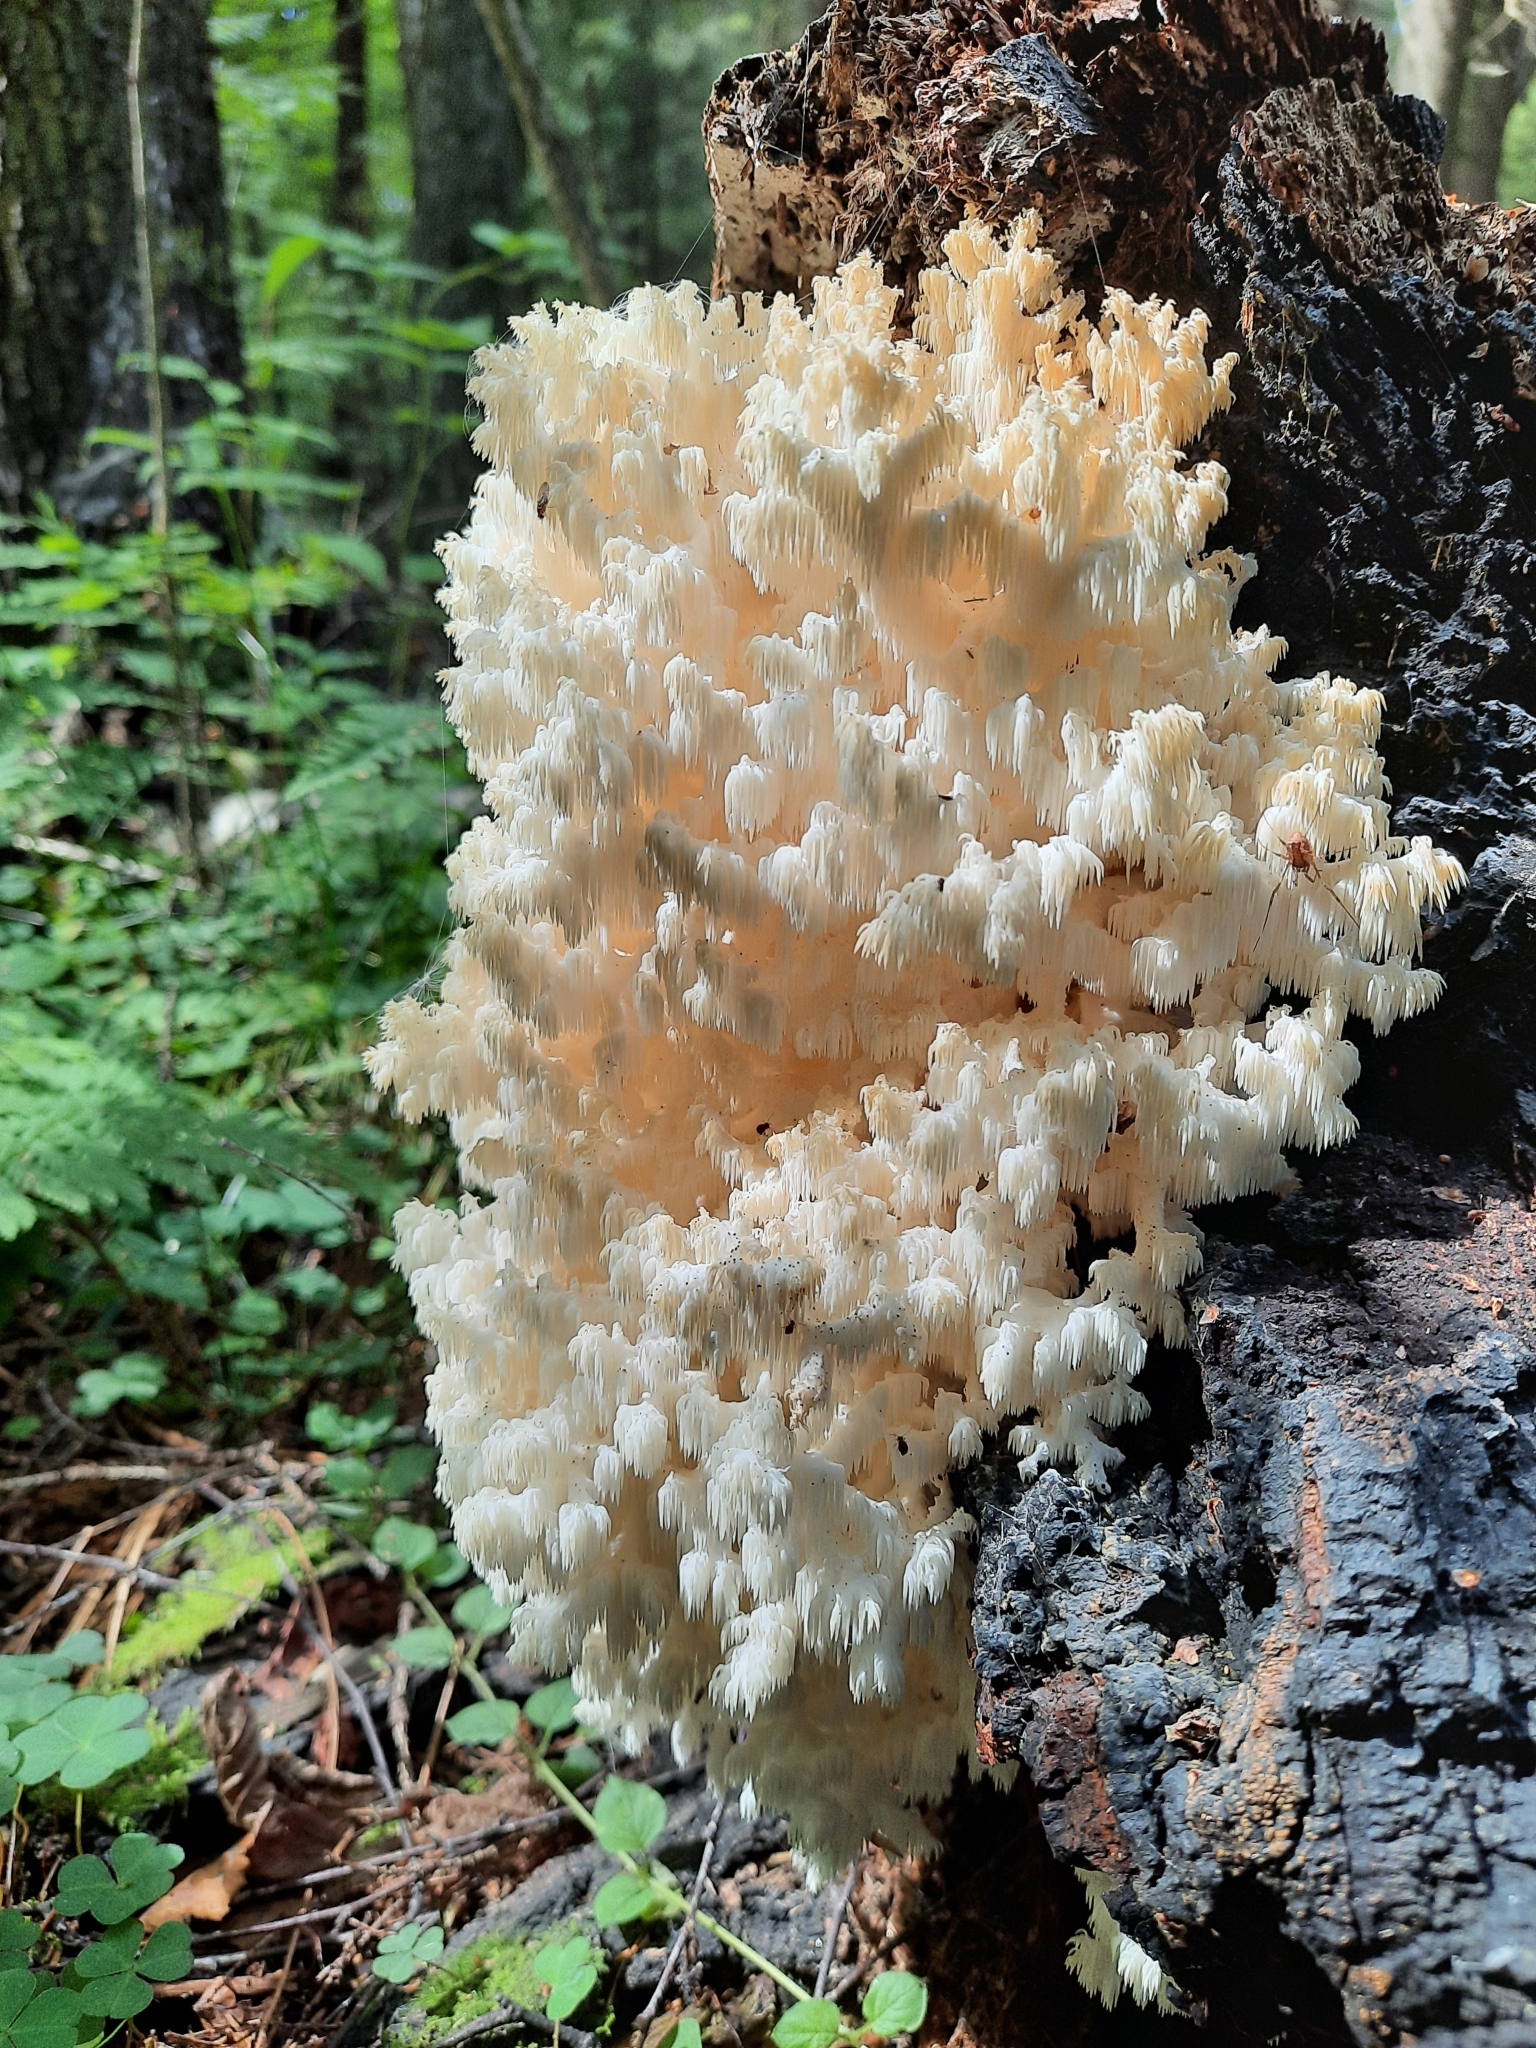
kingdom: Fungi
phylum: Basidiomycota
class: Agaricomycetes
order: Russulales
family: Hericiaceae
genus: Hericium
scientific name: Hericium coralloides
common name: Coral tooth
